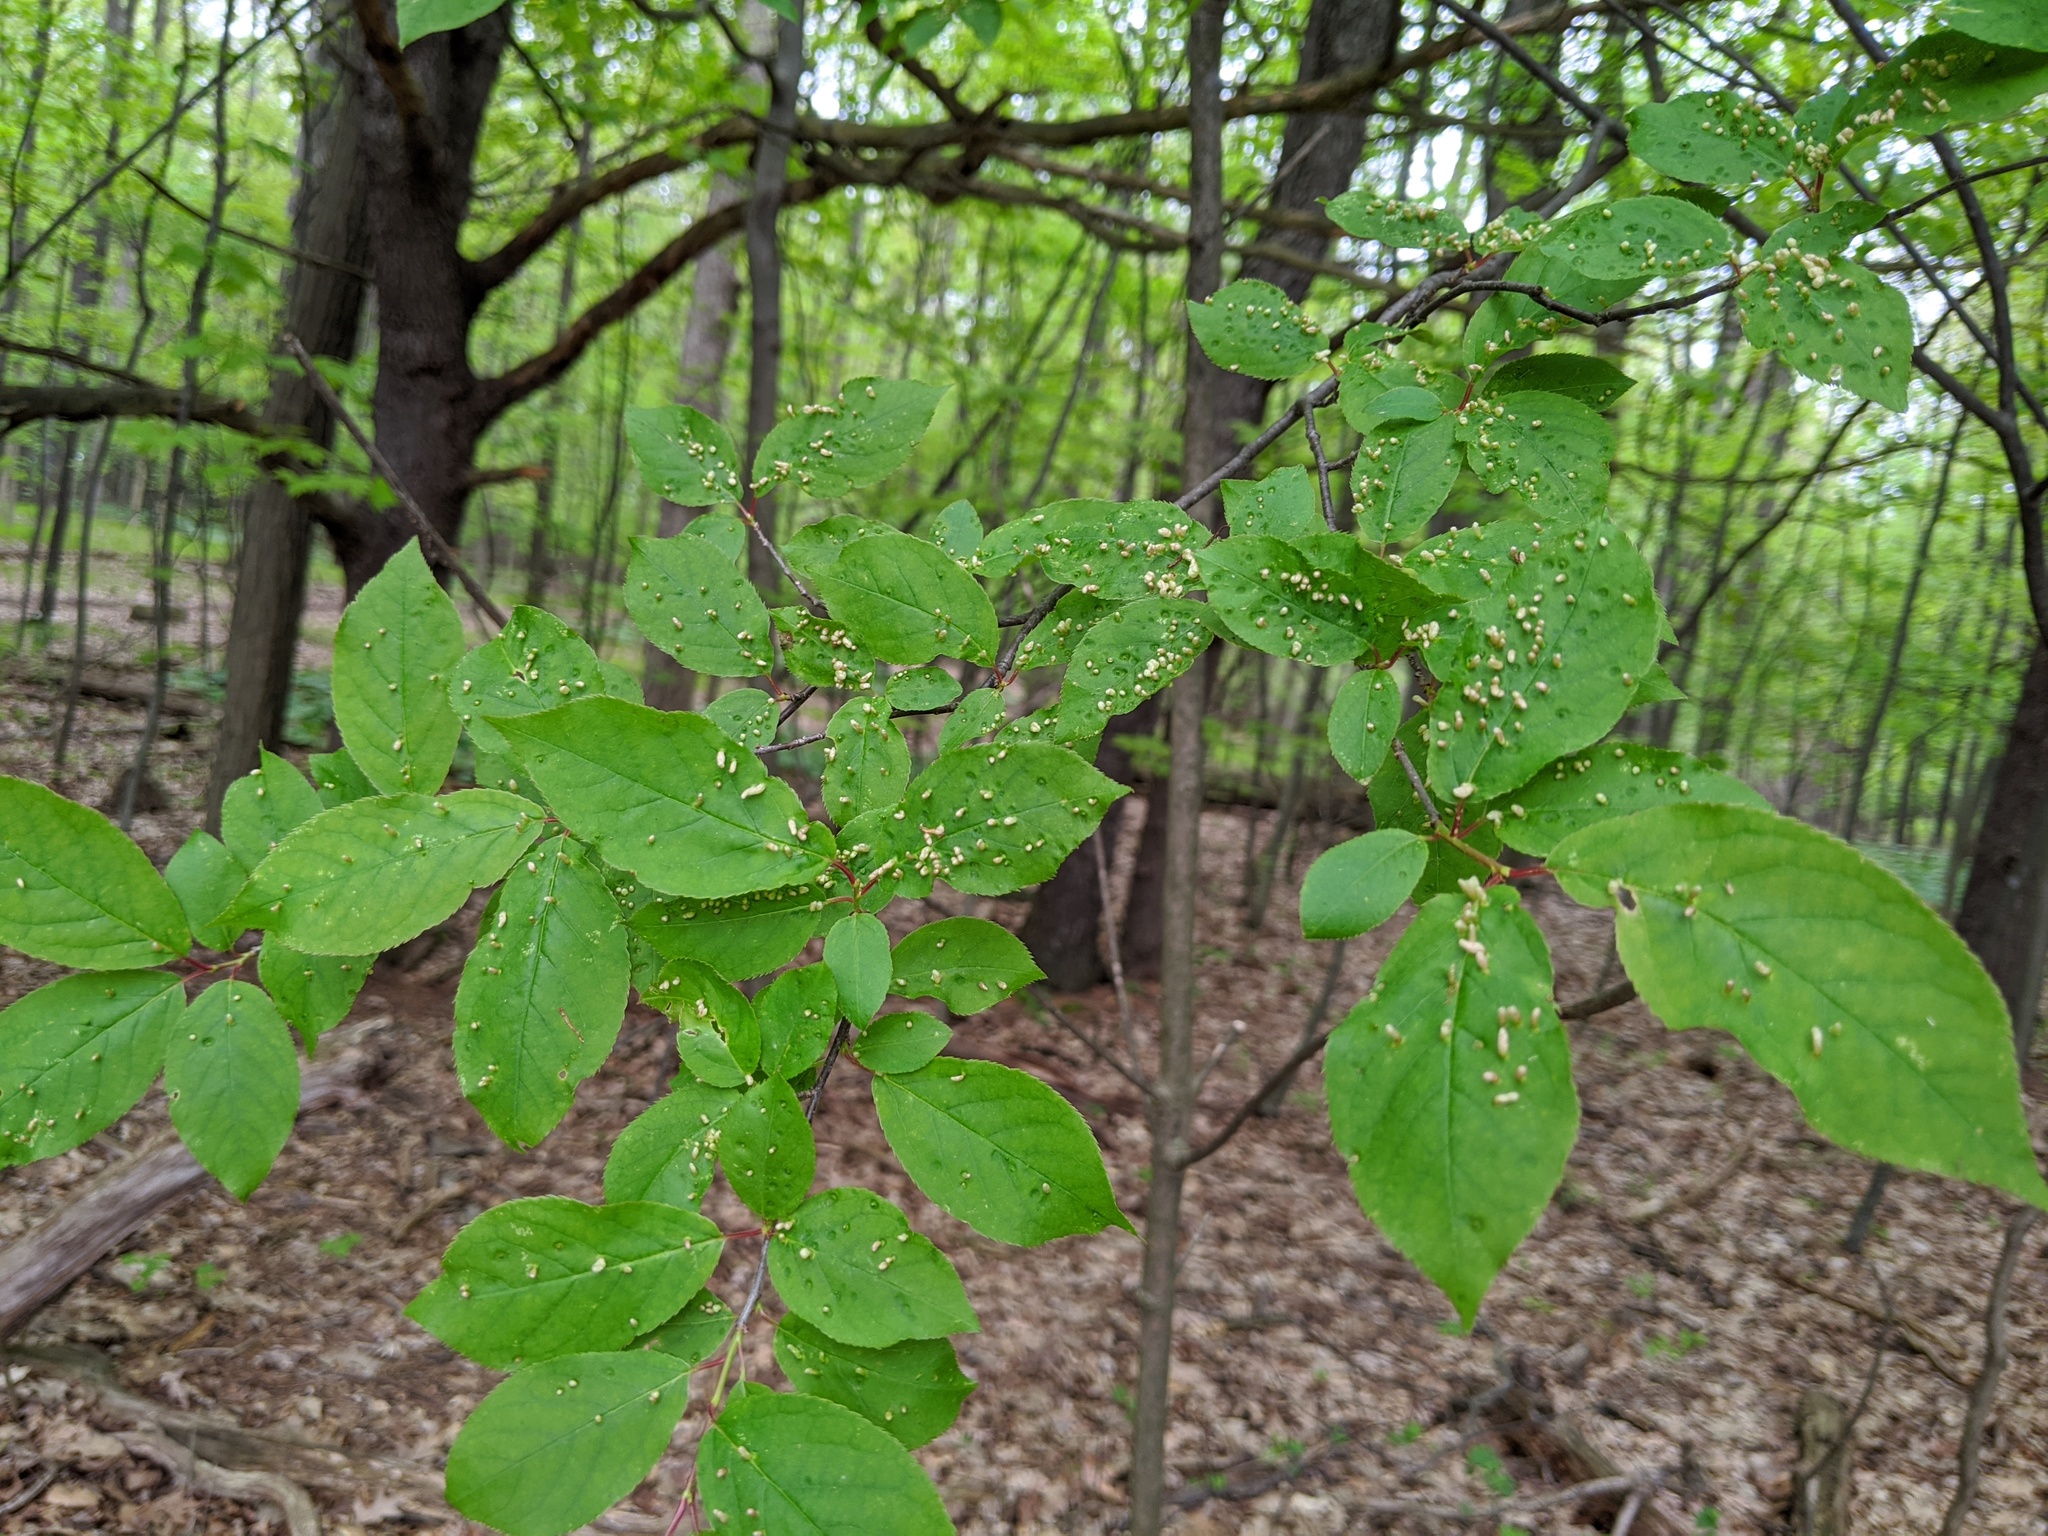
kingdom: Animalia
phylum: Arthropoda
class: Arachnida
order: Trombidiformes
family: Eriophyidae
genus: Eriophyes
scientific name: Eriophyes emarginatae
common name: Plum leaf gall mite
